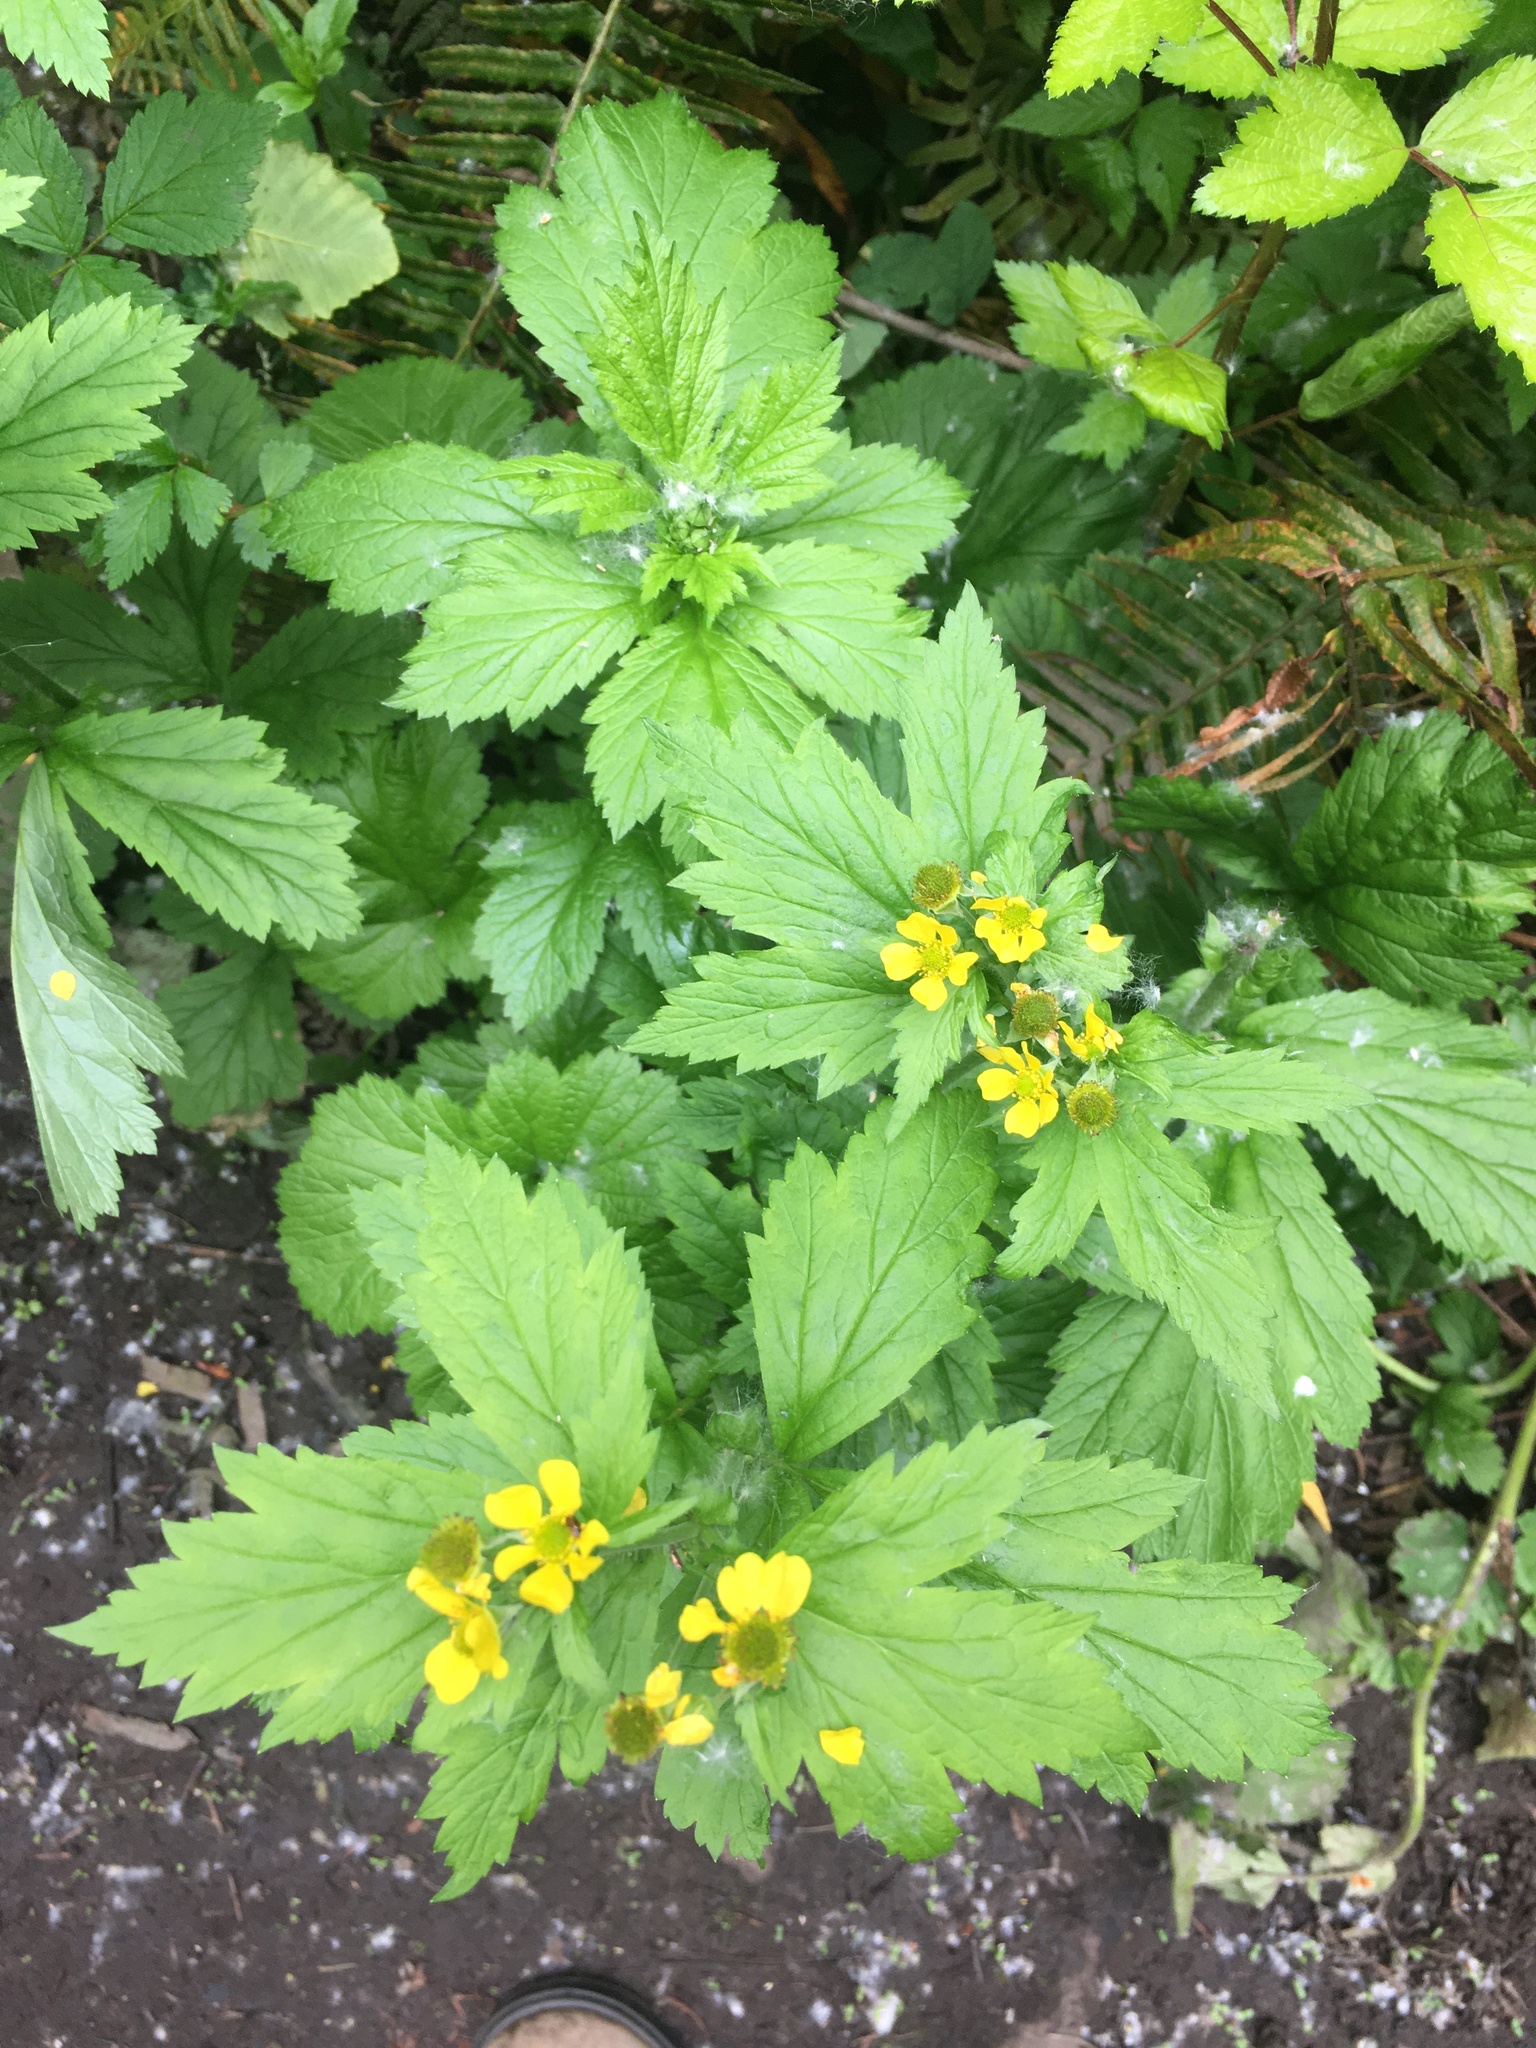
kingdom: Plantae
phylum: Tracheophyta
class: Magnoliopsida
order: Rosales
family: Rosaceae
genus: Geum
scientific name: Geum macrophyllum
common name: Large-leaved avens
